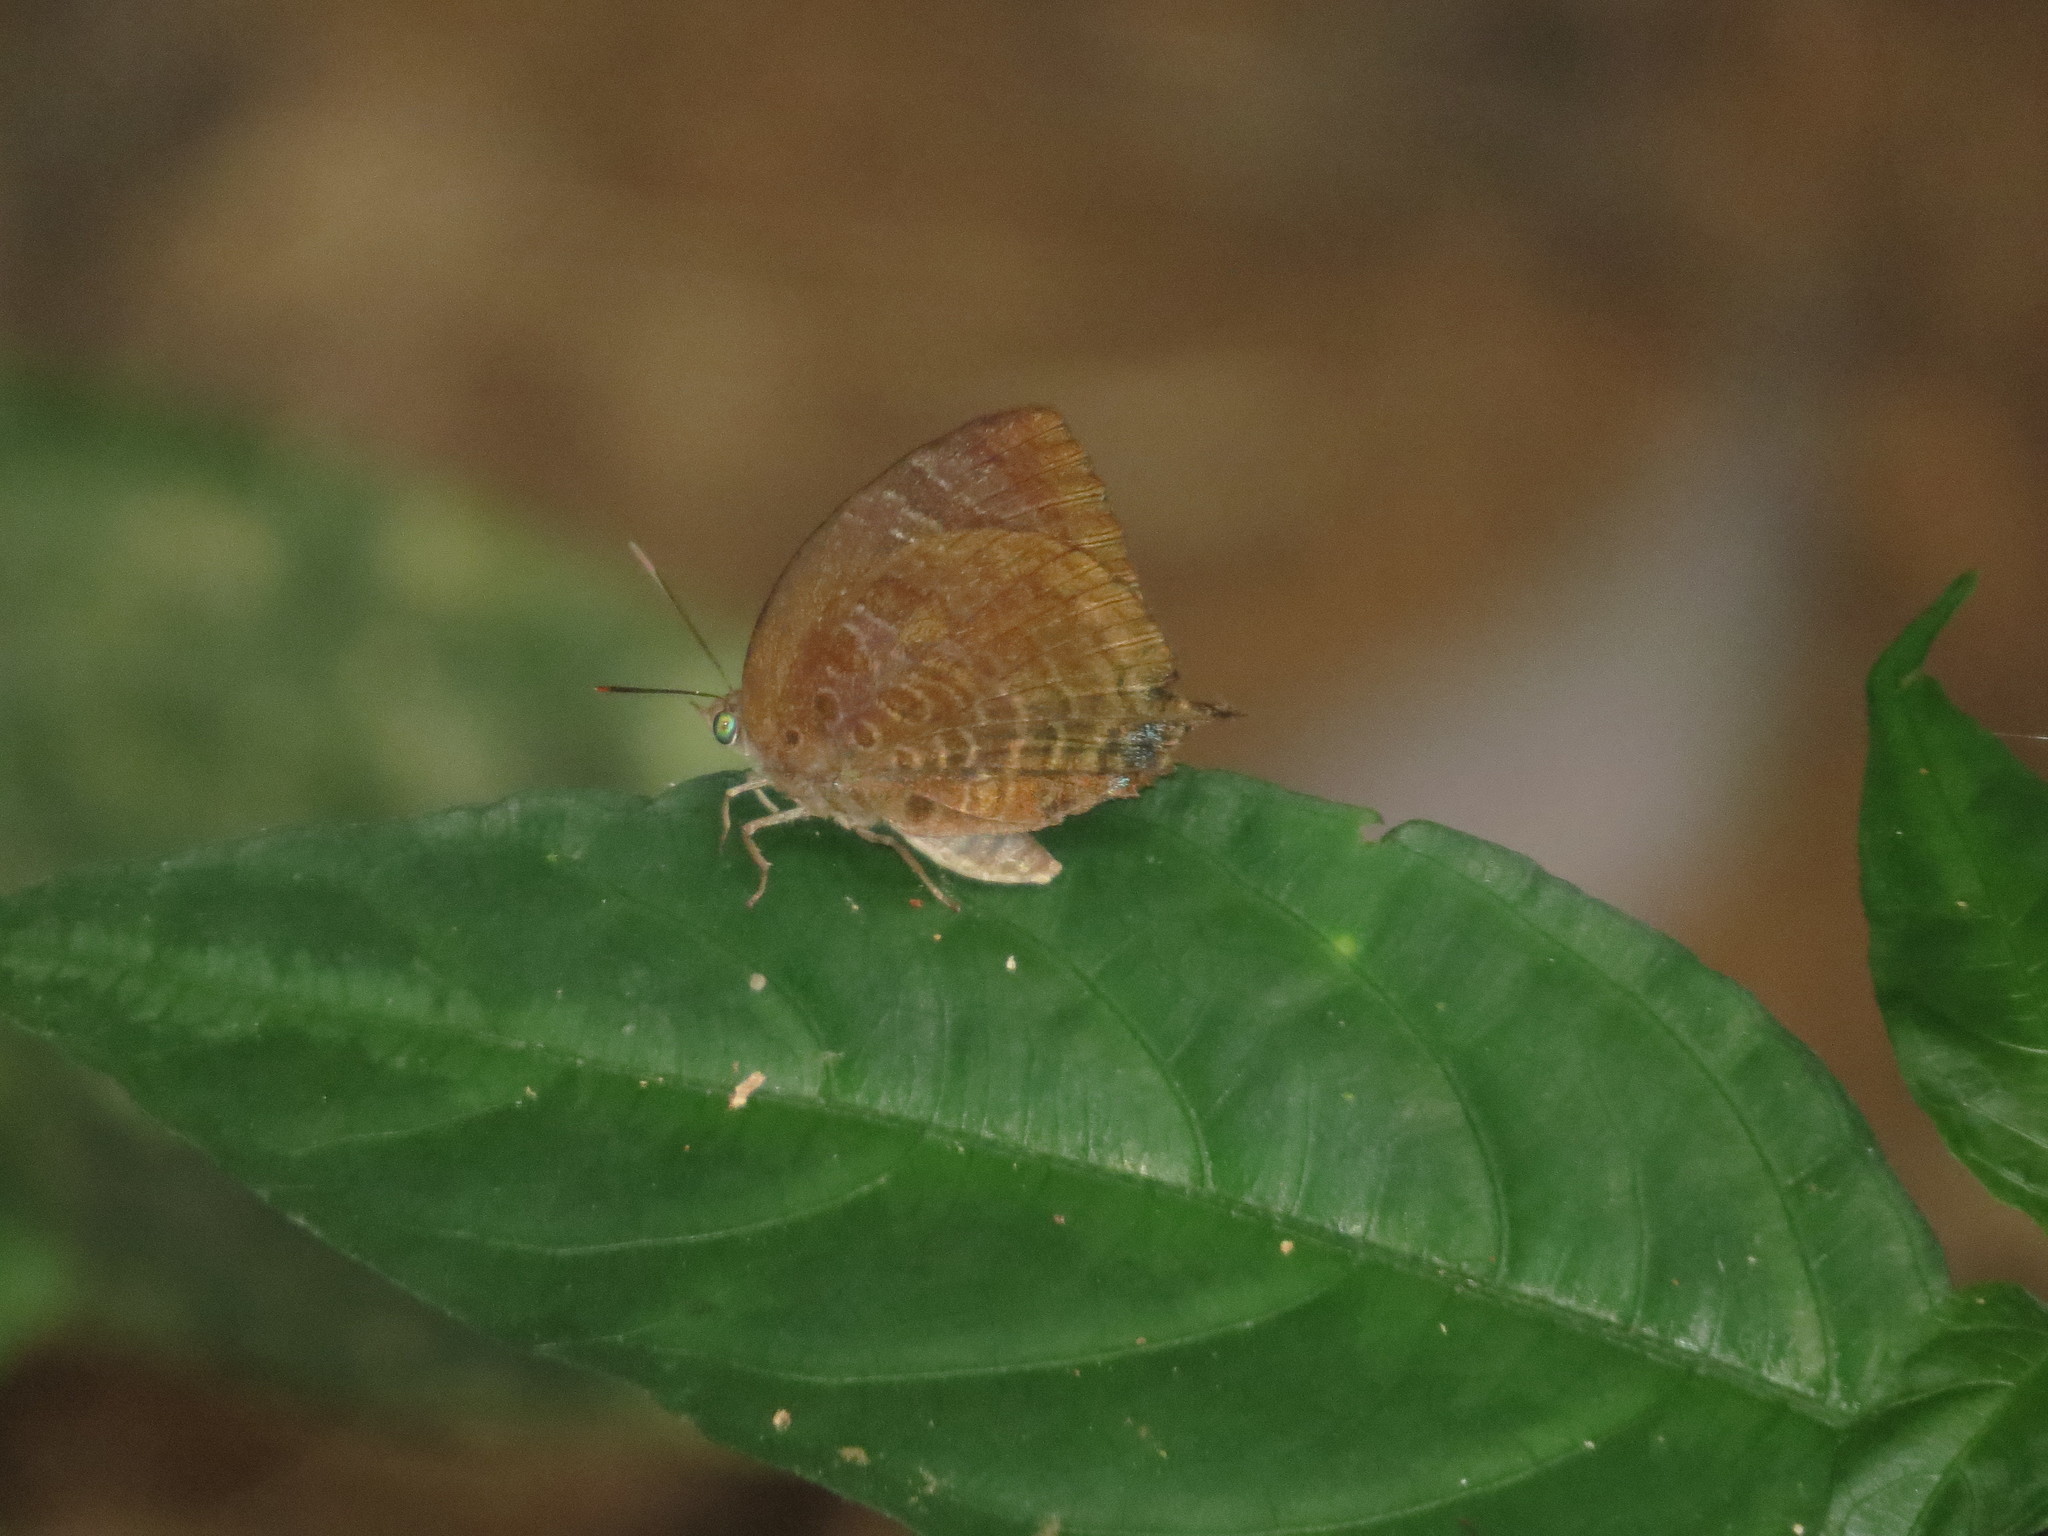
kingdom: Animalia
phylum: Arthropoda
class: Insecta
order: Lepidoptera
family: Lycaenidae
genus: Arhopala
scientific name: Arhopala centaurus
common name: Dull oak-blue
